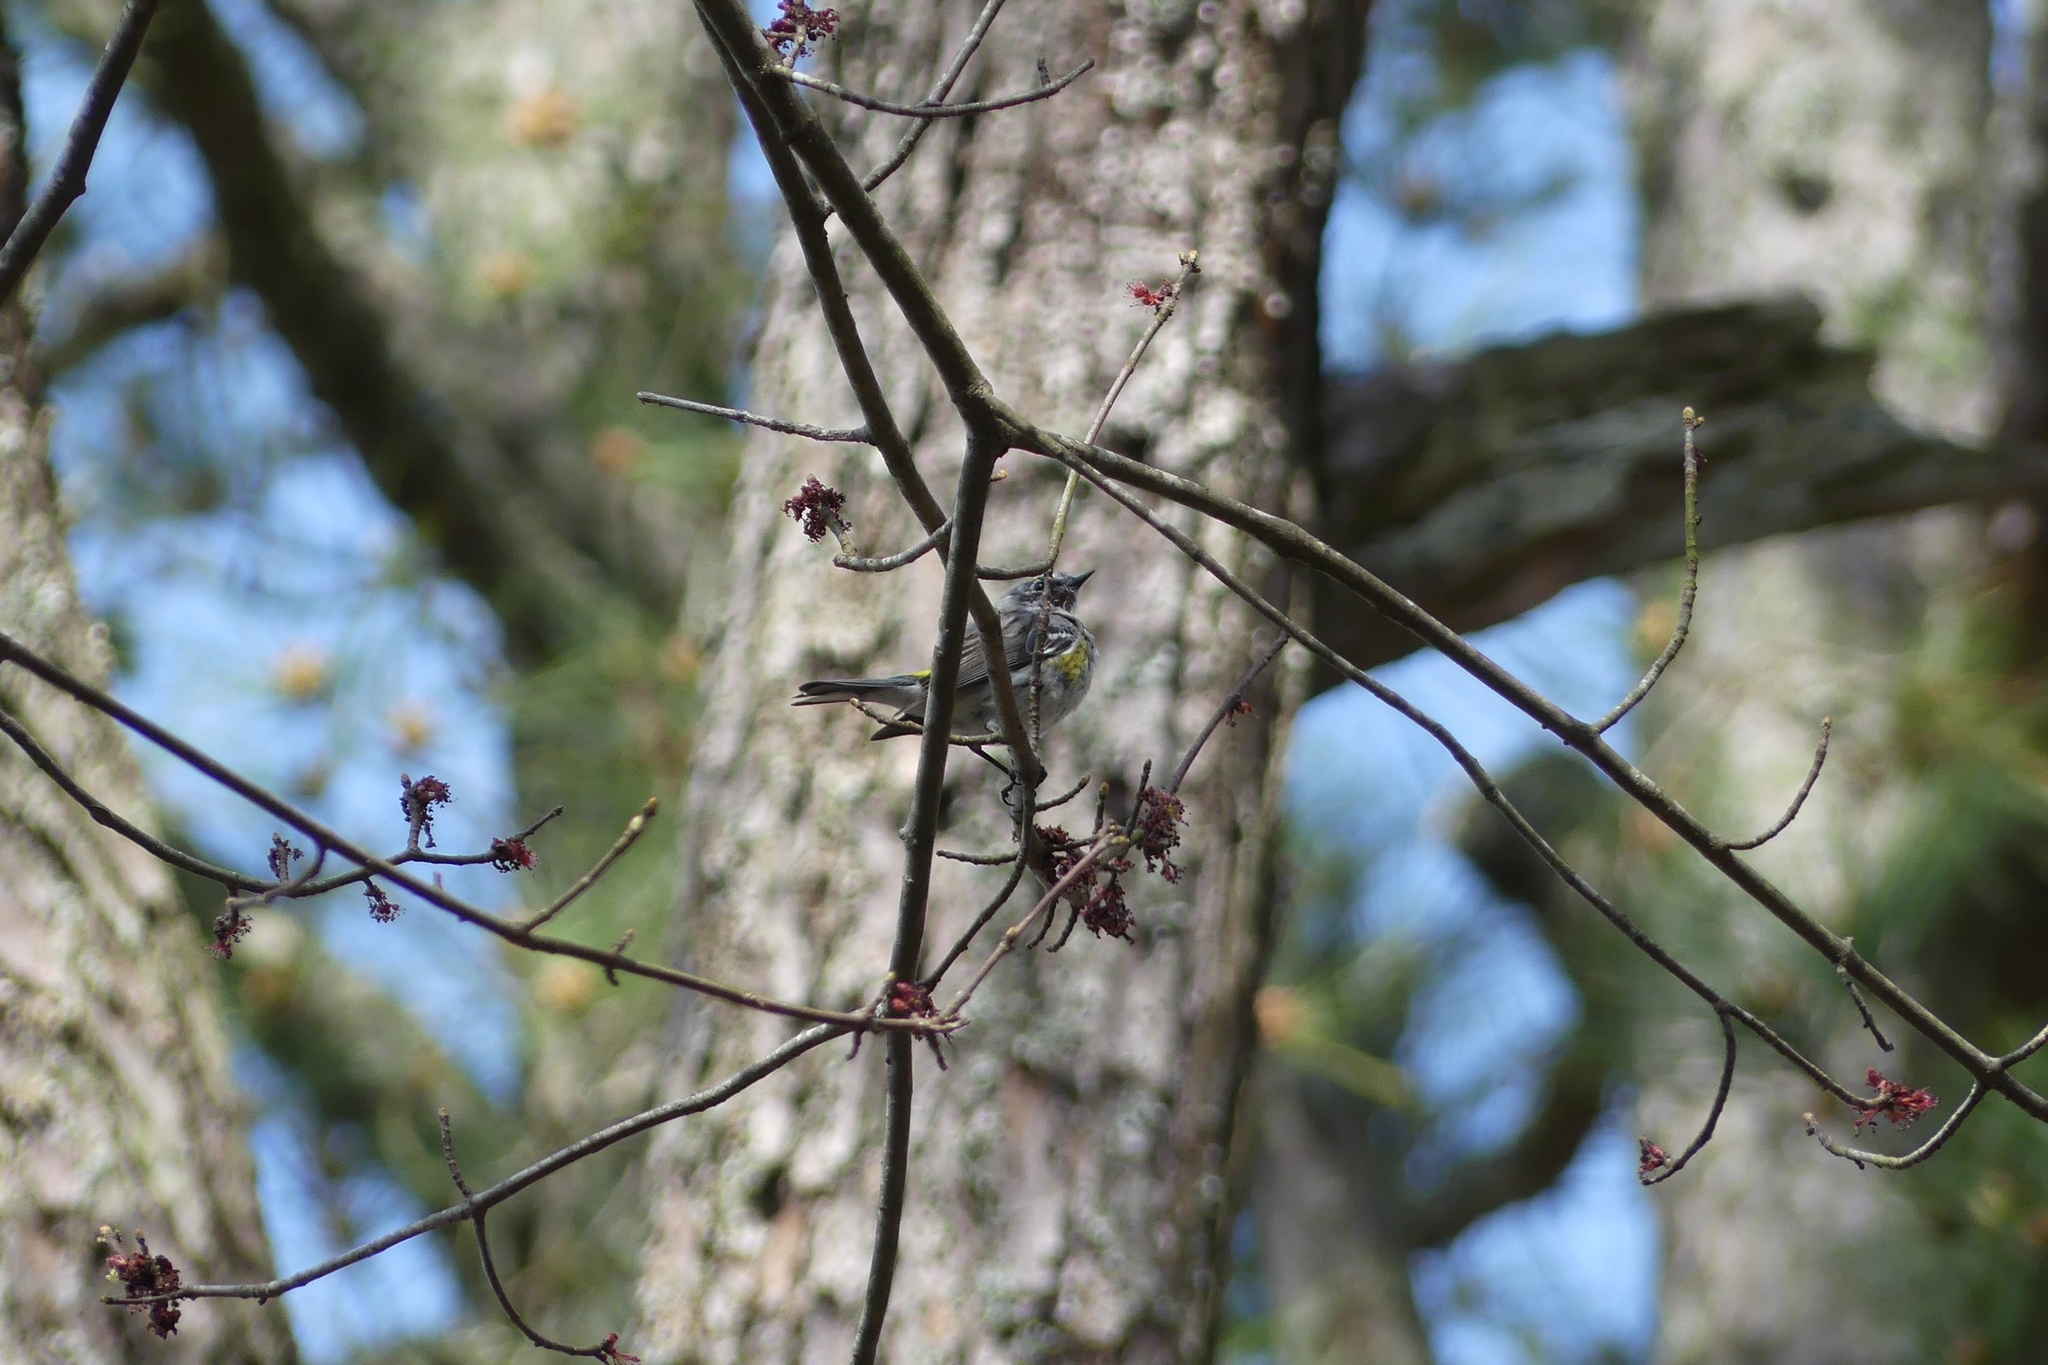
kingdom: Animalia
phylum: Chordata
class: Aves
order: Passeriformes
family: Parulidae
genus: Setophaga
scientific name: Setophaga coronata
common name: Myrtle warbler
